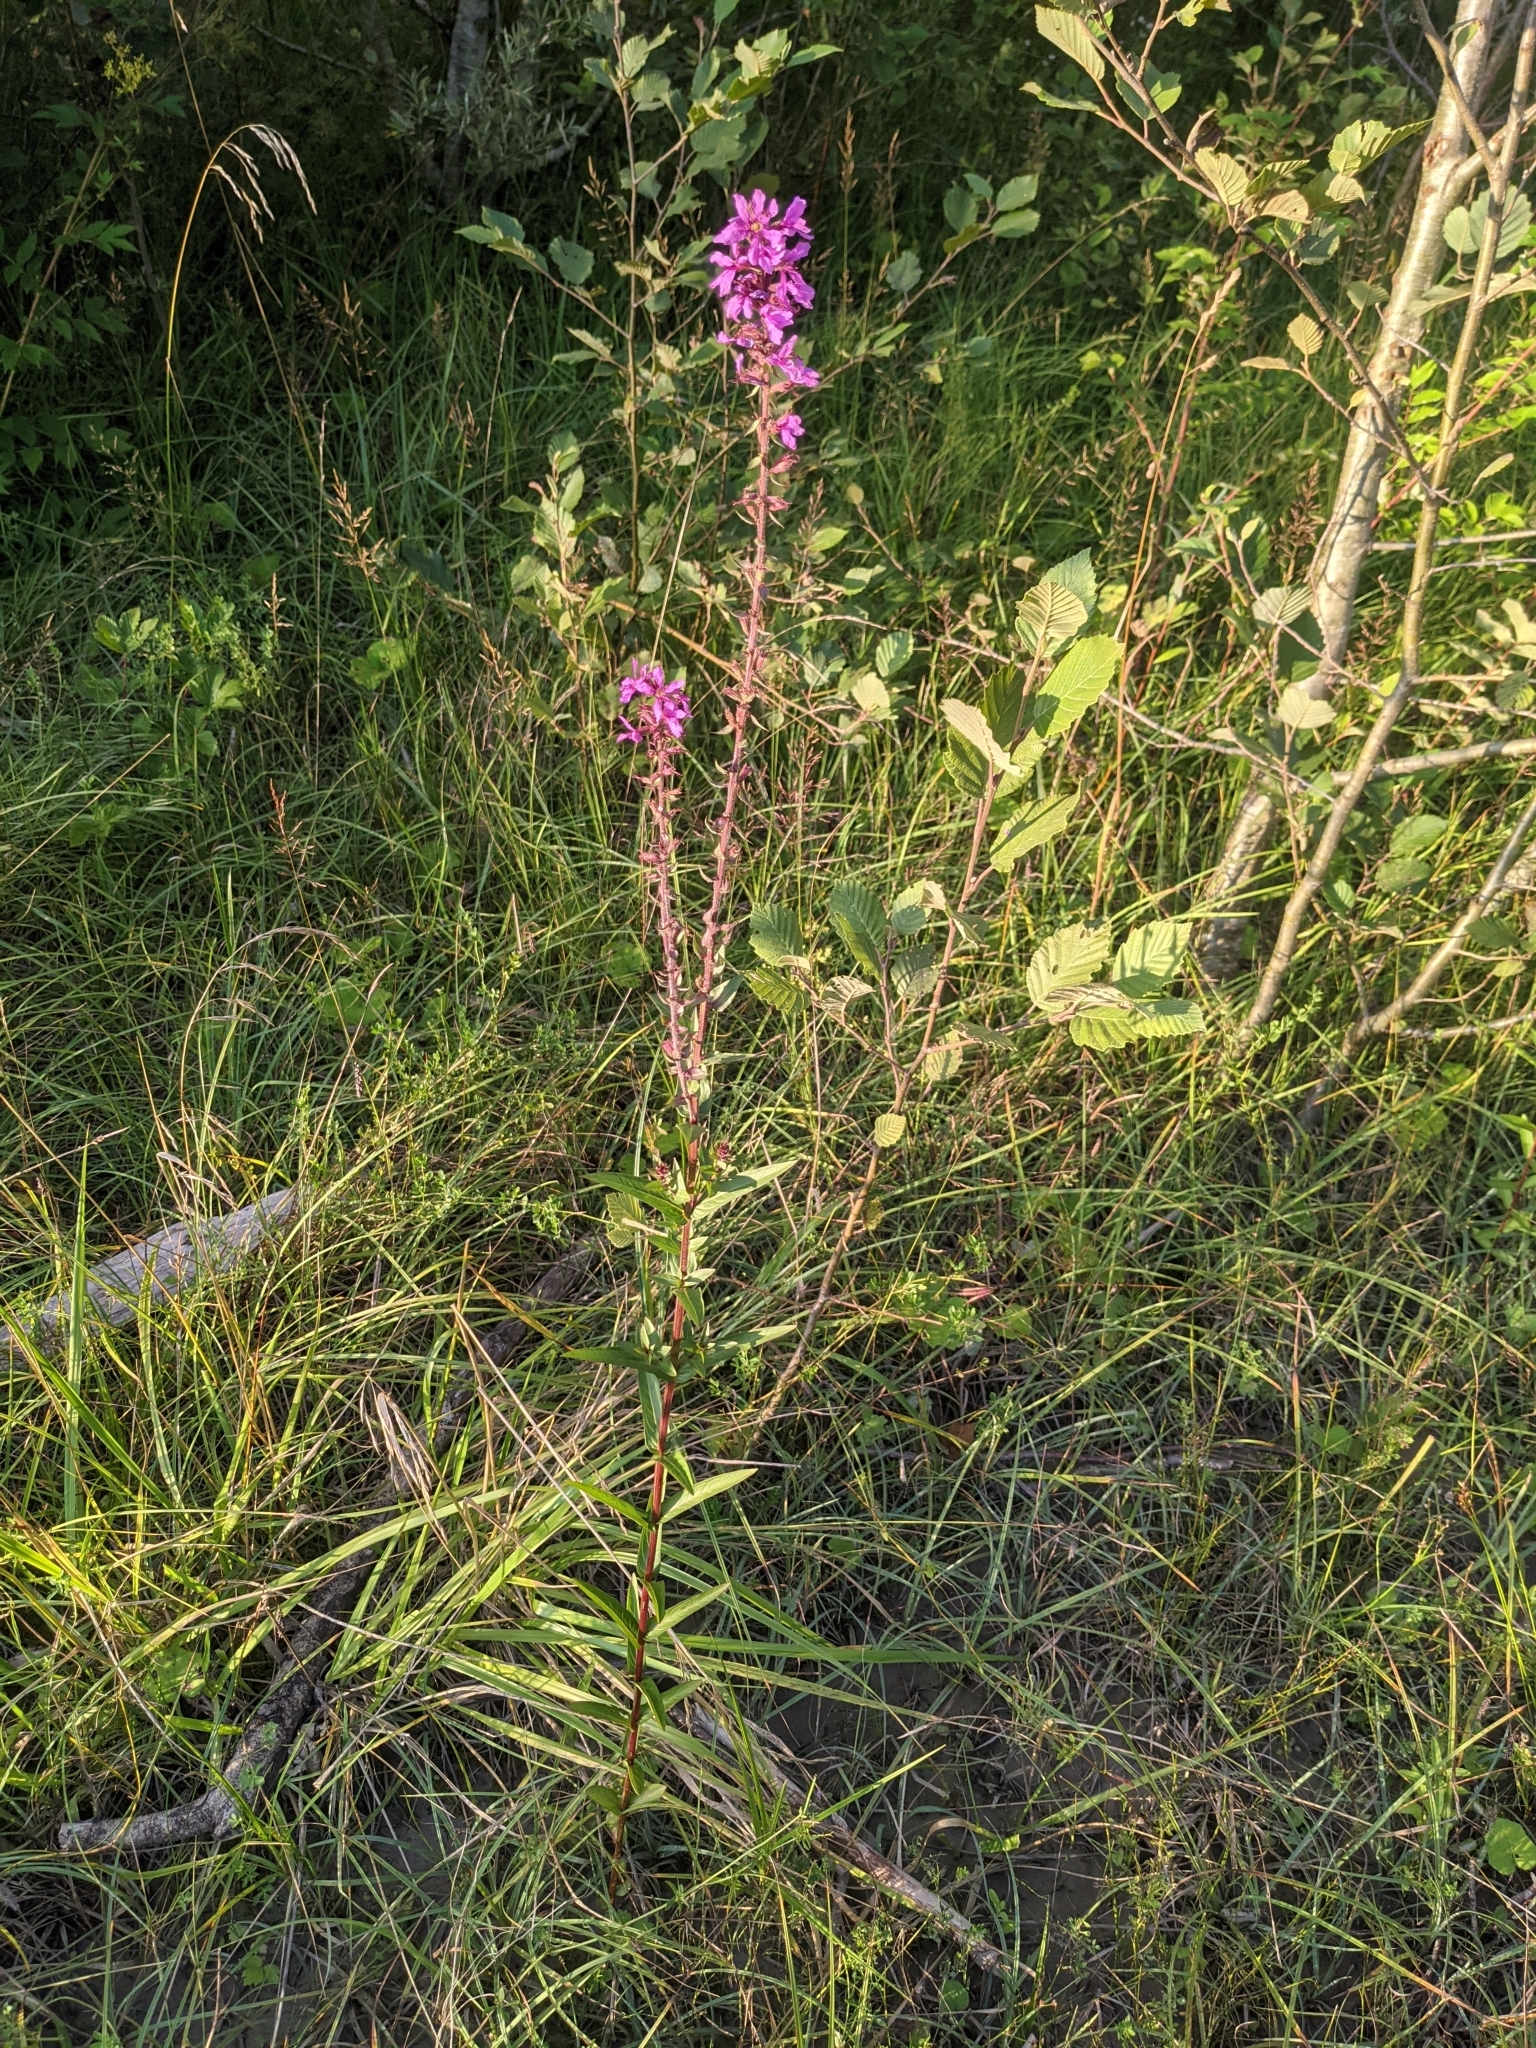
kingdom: Plantae
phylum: Tracheophyta
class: Magnoliopsida
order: Myrtales
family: Lythraceae
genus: Lythrum
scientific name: Lythrum salicaria
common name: Purple loosestrife
